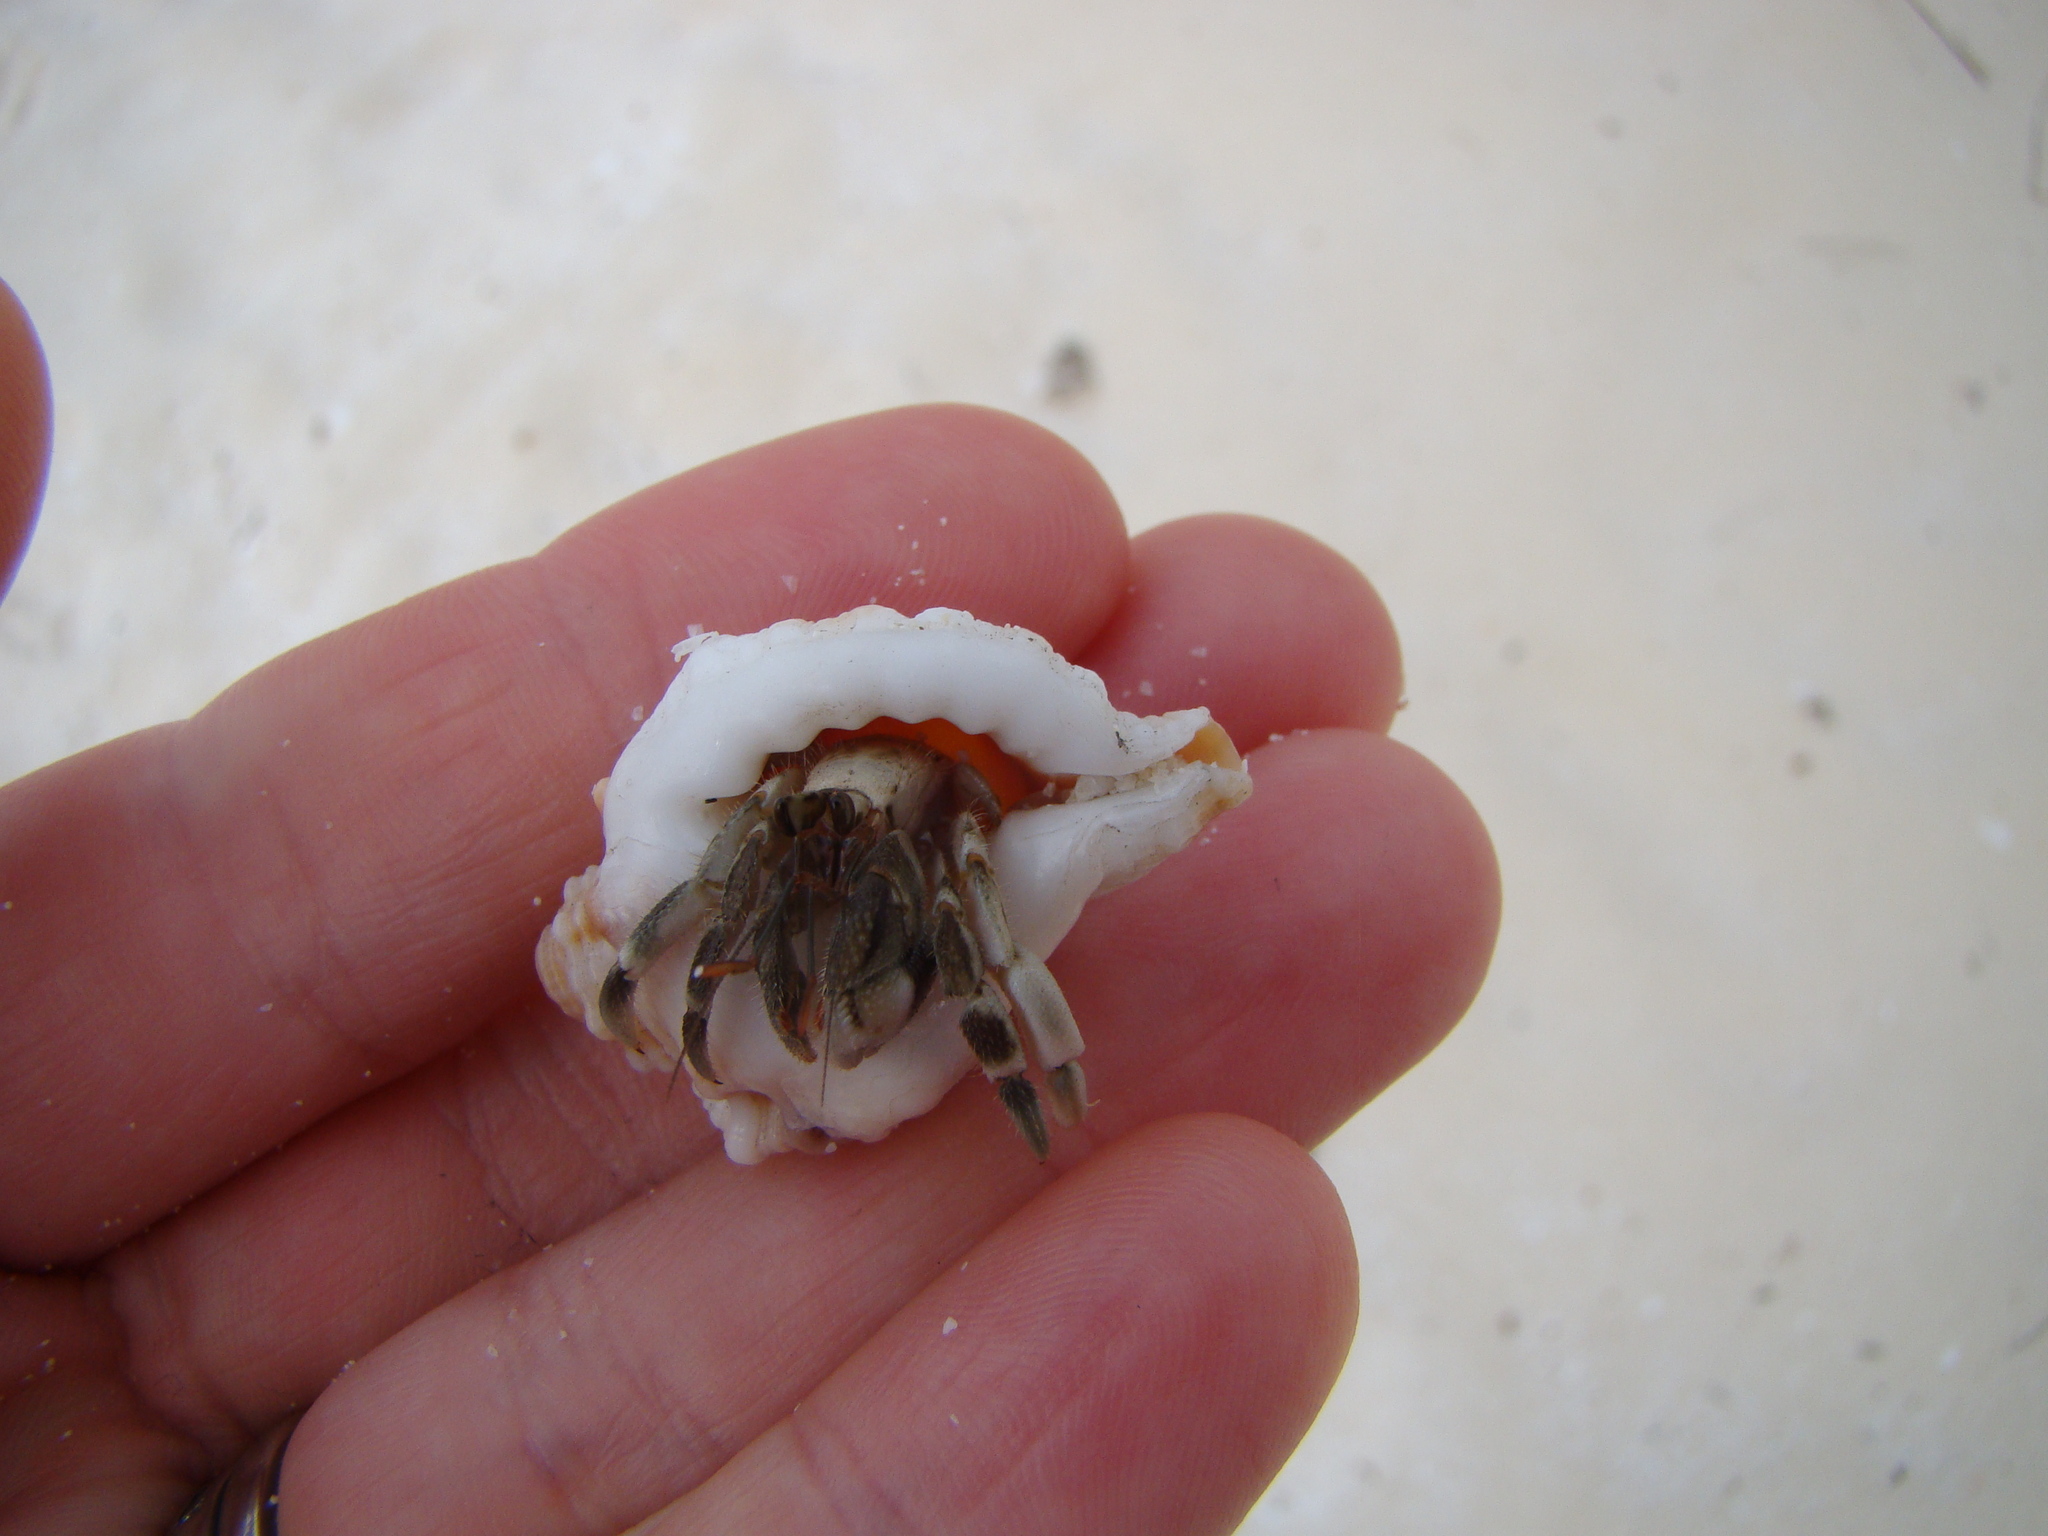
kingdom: Animalia
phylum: Arthropoda
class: Malacostraca
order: Decapoda
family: Coenobitidae
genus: Coenobita
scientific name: Coenobita rugosus
